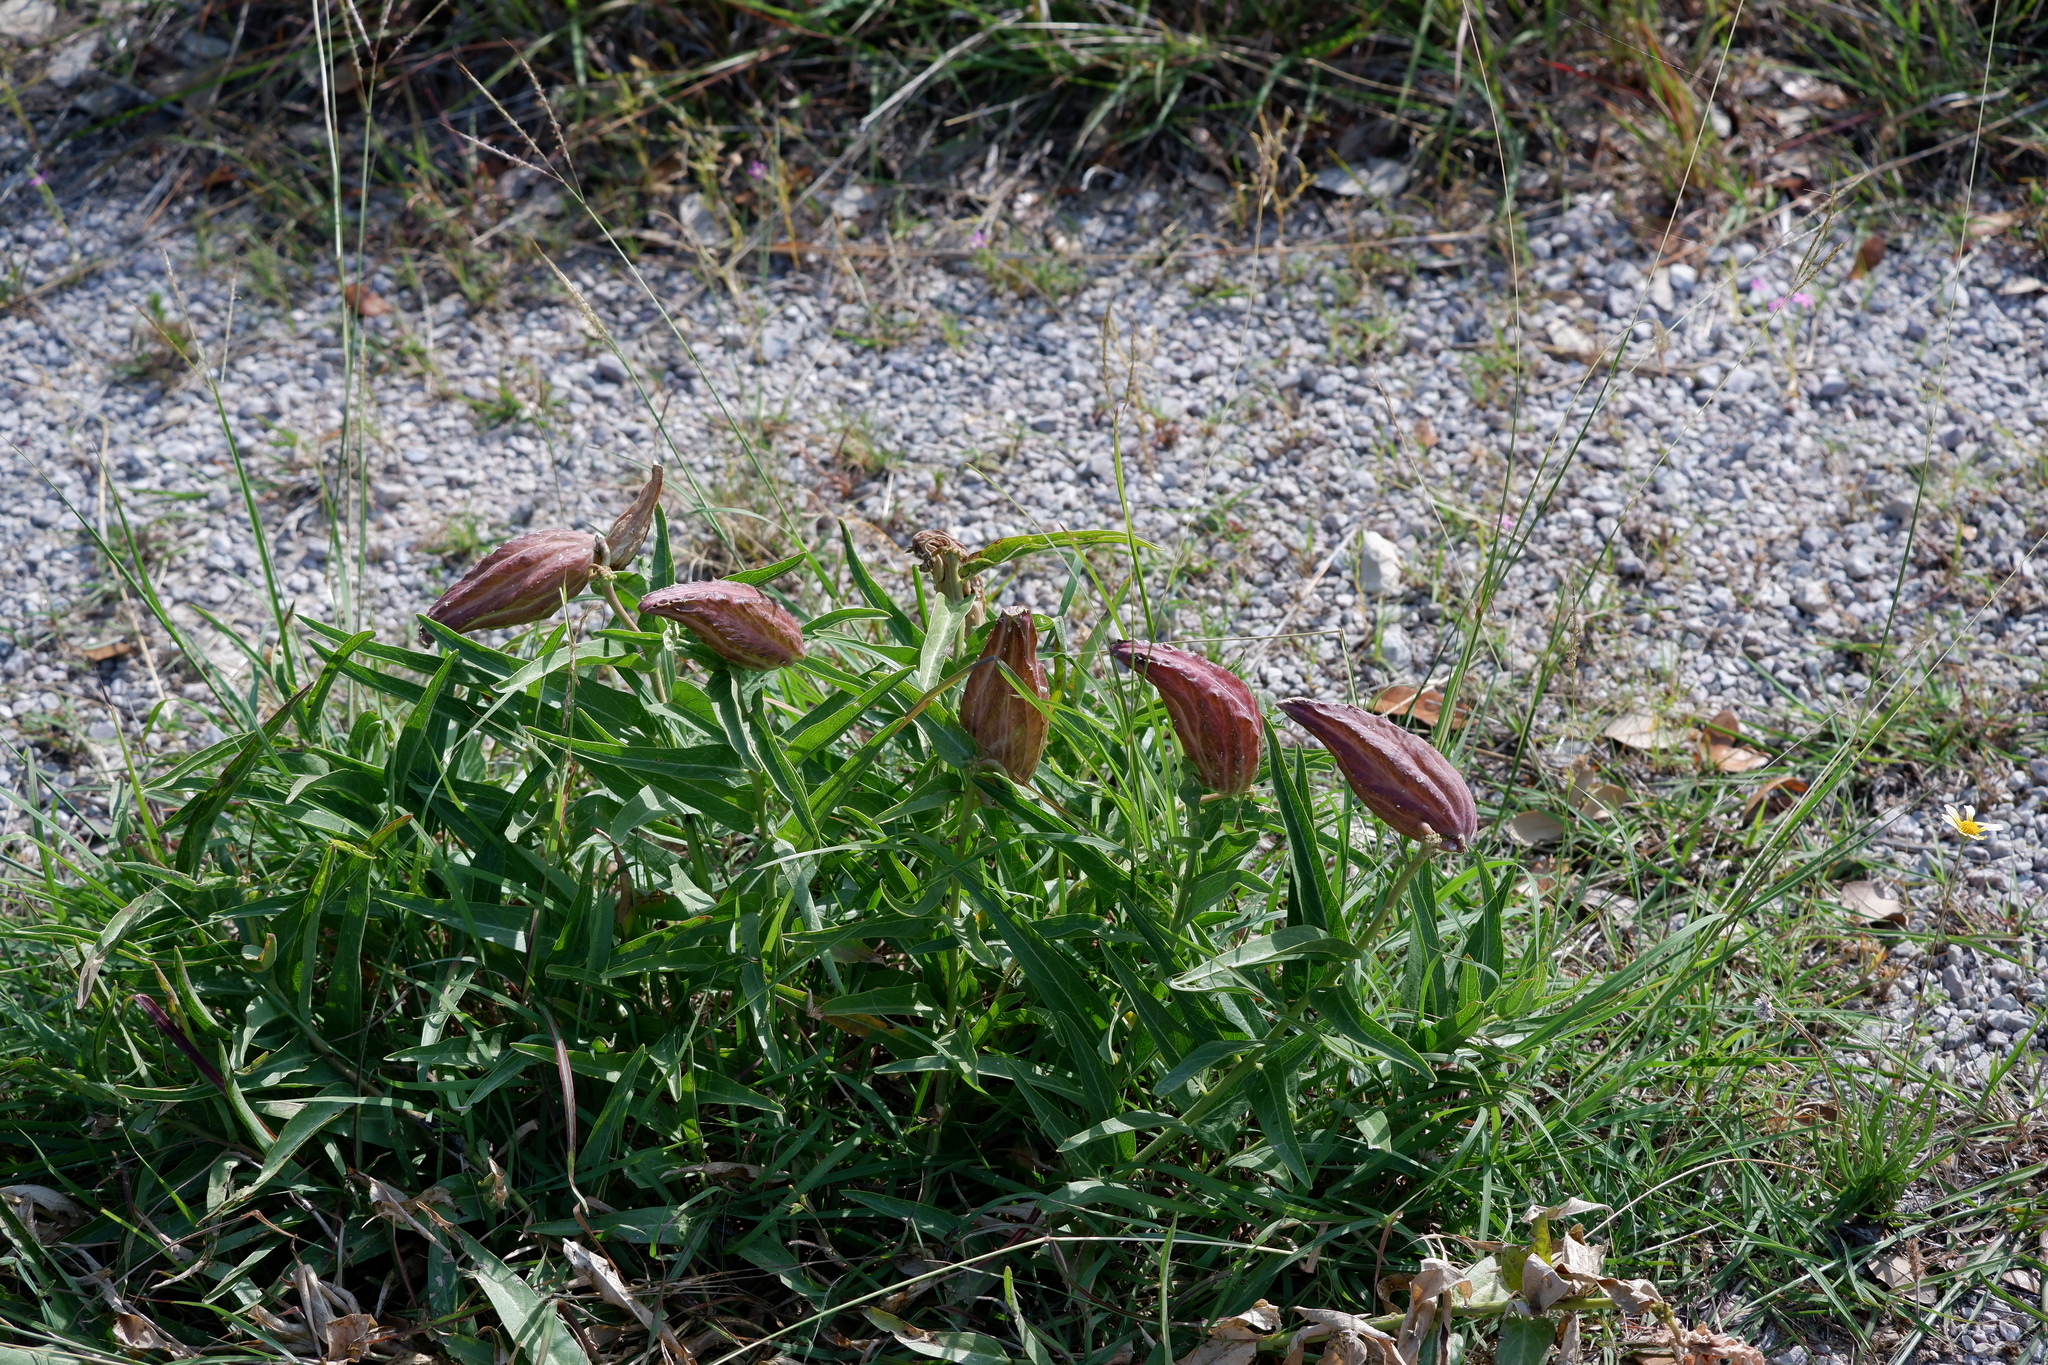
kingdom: Plantae
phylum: Tracheophyta
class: Magnoliopsida
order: Gentianales
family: Apocynaceae
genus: Asclepias
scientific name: Asclepias asperula
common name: Antelope horns
